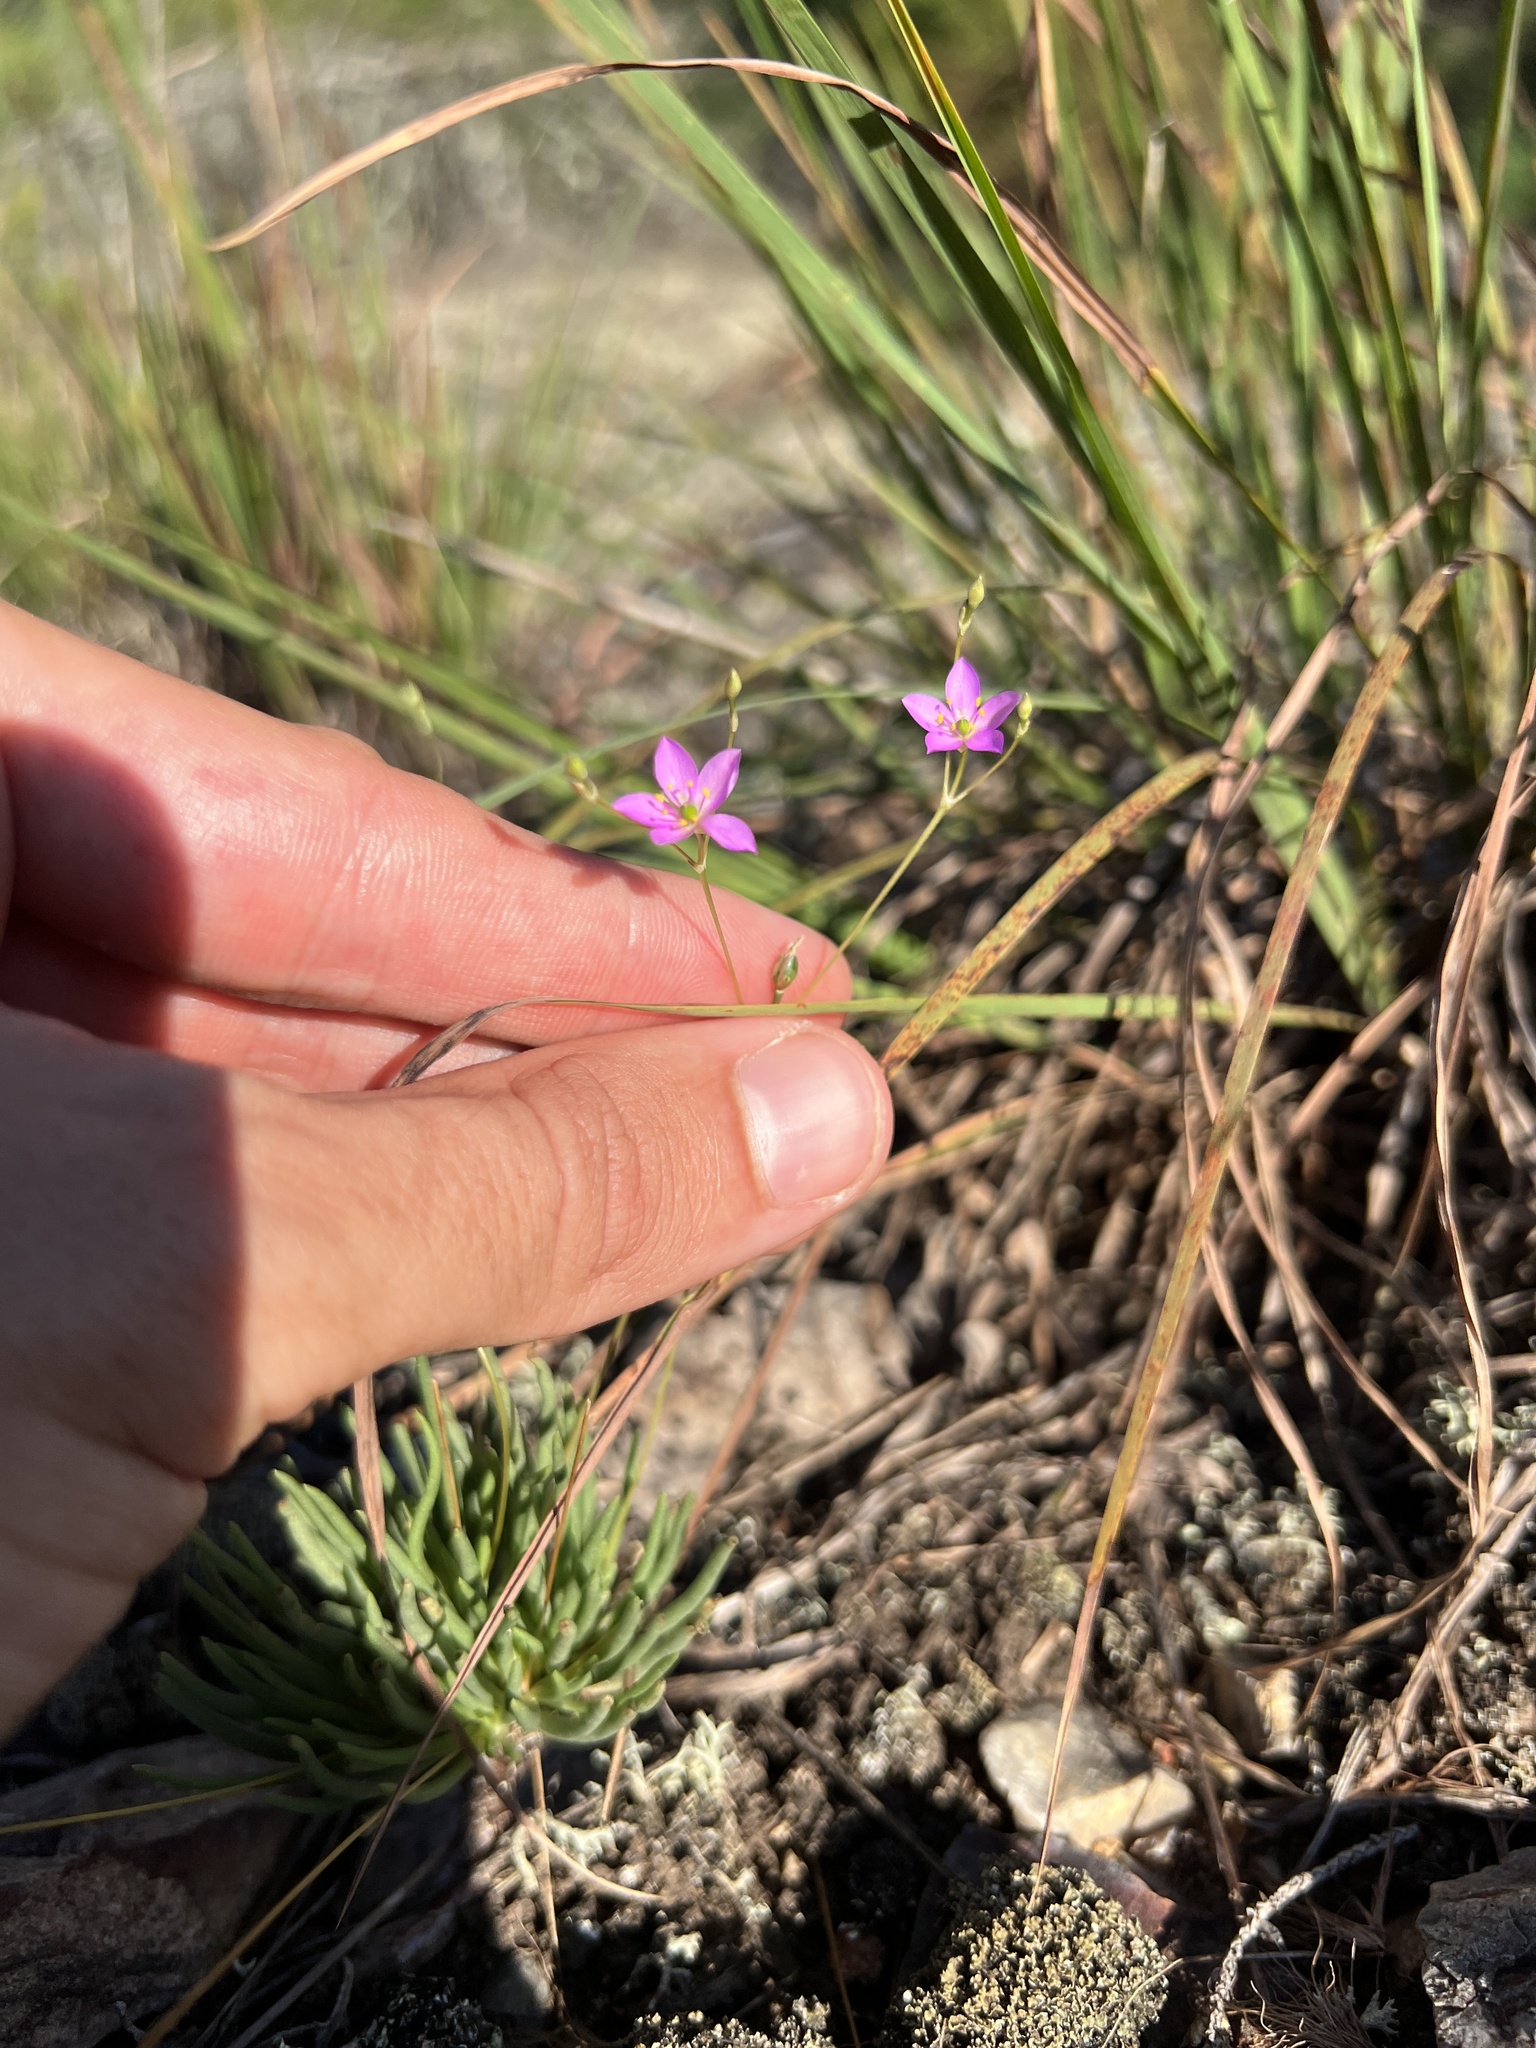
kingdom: Plantae
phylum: Tracheophyta
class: Magnoliopsida
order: Caryophyllales
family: Montiaceae
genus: Phemeranthus
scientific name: Phemeranthus parviflorus
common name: Sunbright
